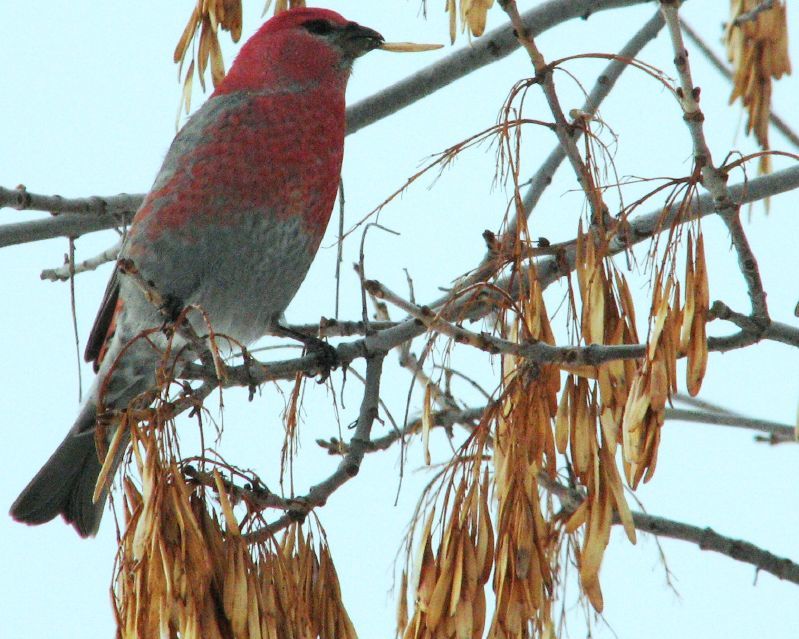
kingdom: Animalia
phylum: Chordata
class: Aves
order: Passeriformes
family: Fringillidae
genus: Pinicola
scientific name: Pinicola enucleator
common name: Pine grosbeak
